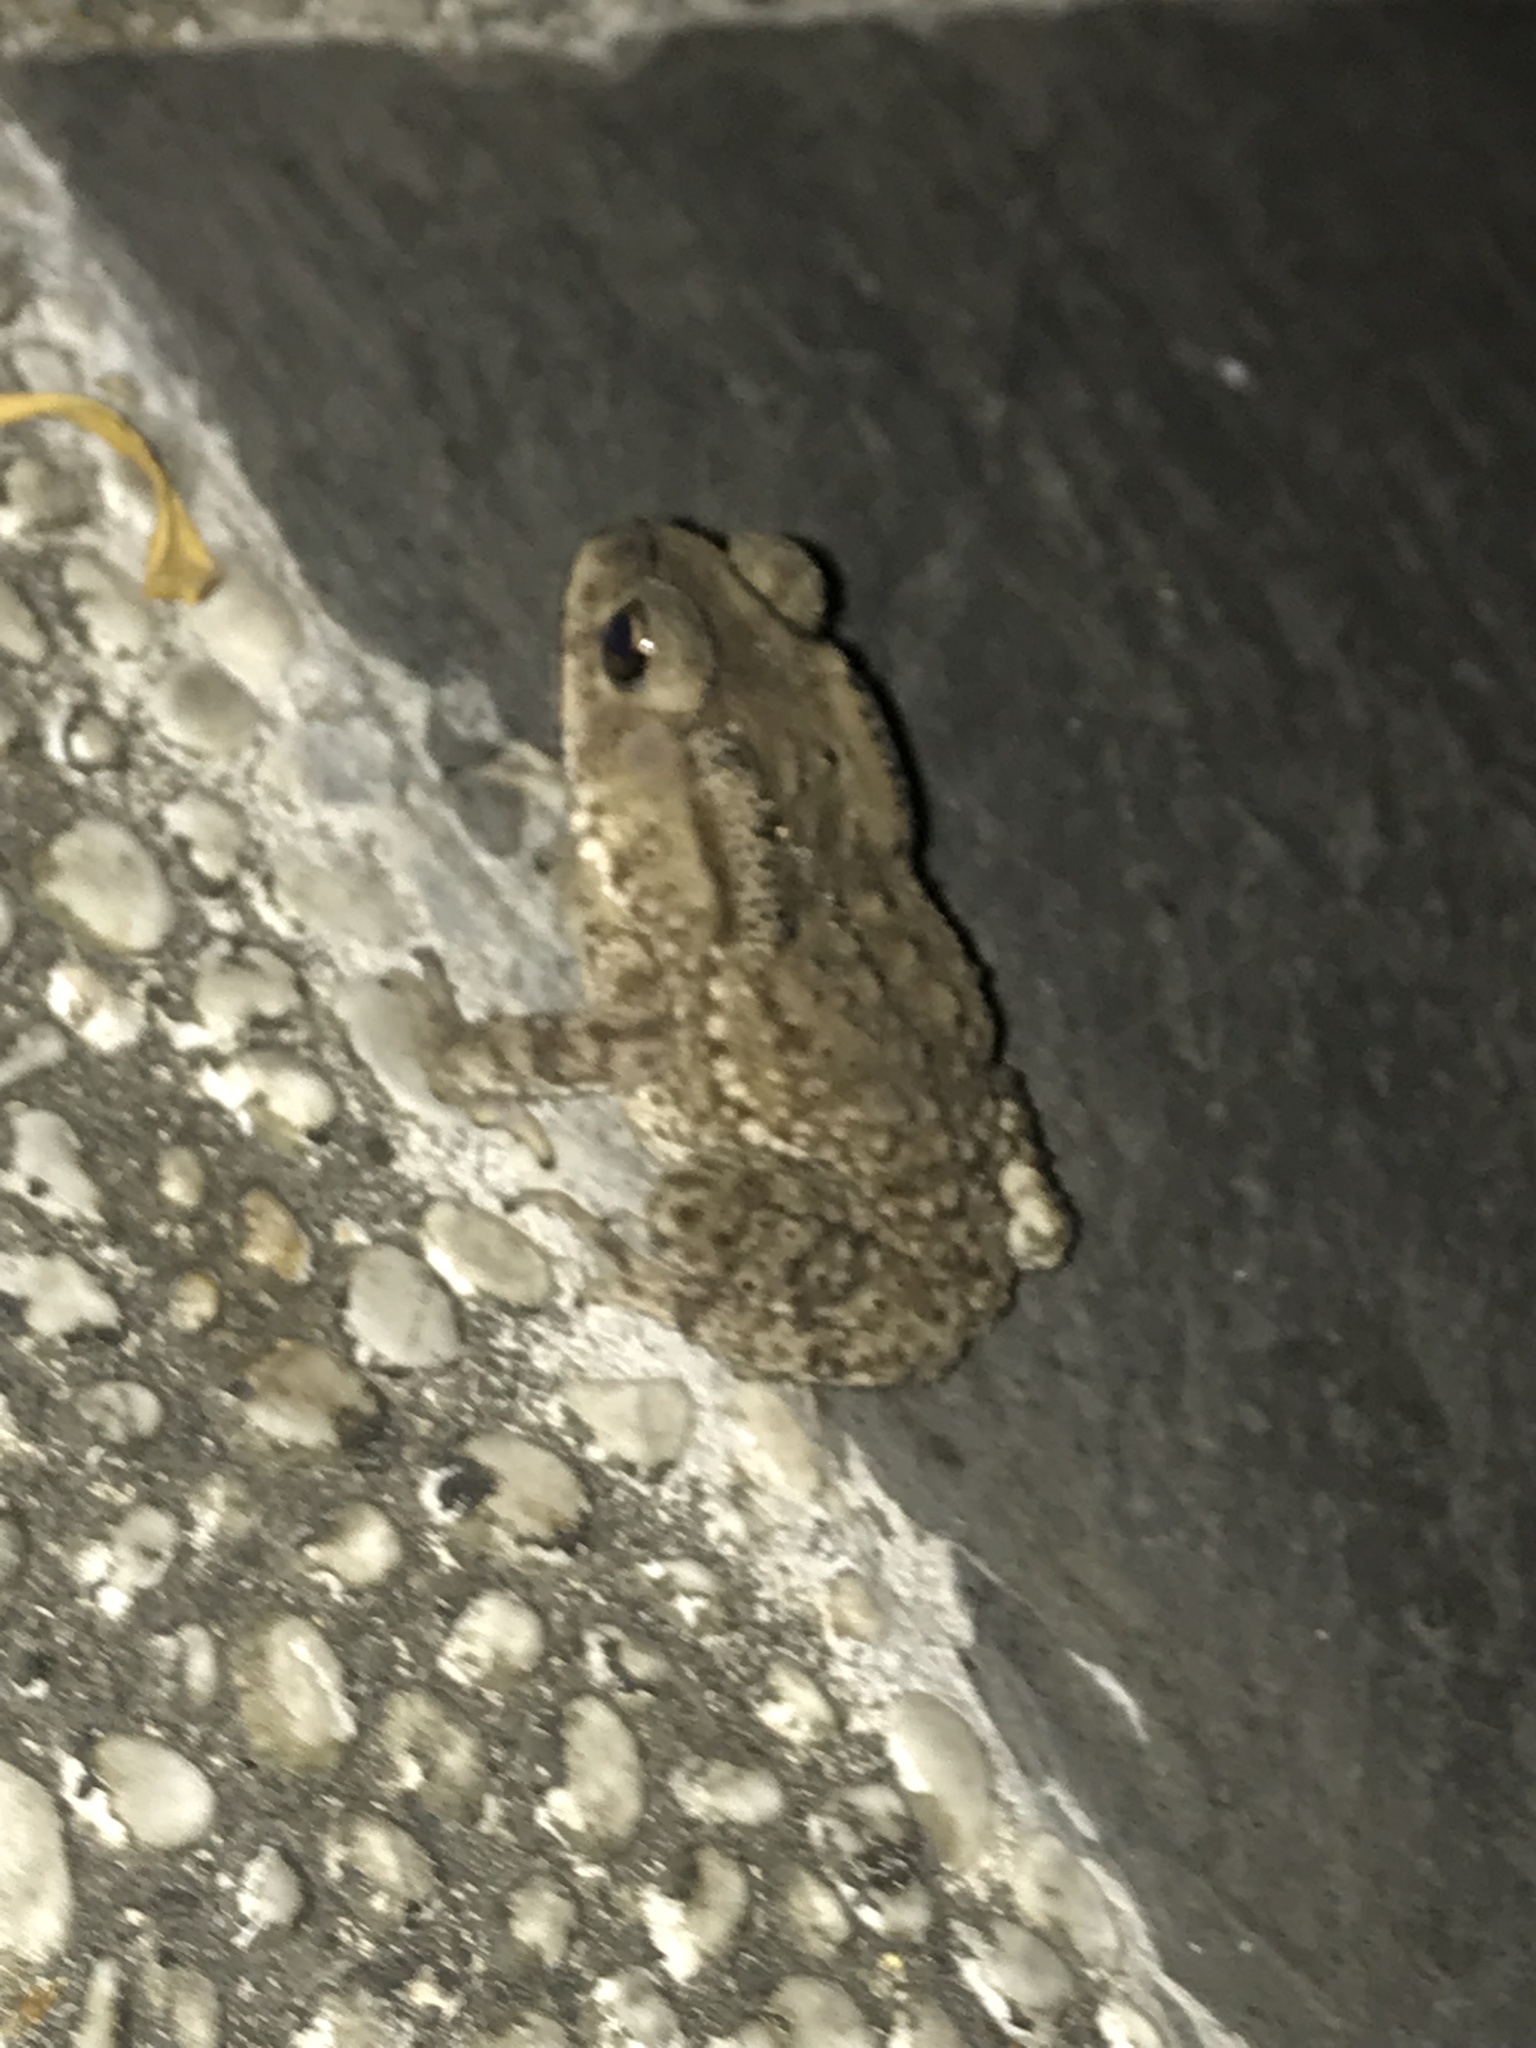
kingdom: Animalia
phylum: Chordata
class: Amphibia
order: Anura
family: Bufonidae
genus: Duttaphrynus
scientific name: Duttaphrynus melanostictus
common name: Common sunda toad
